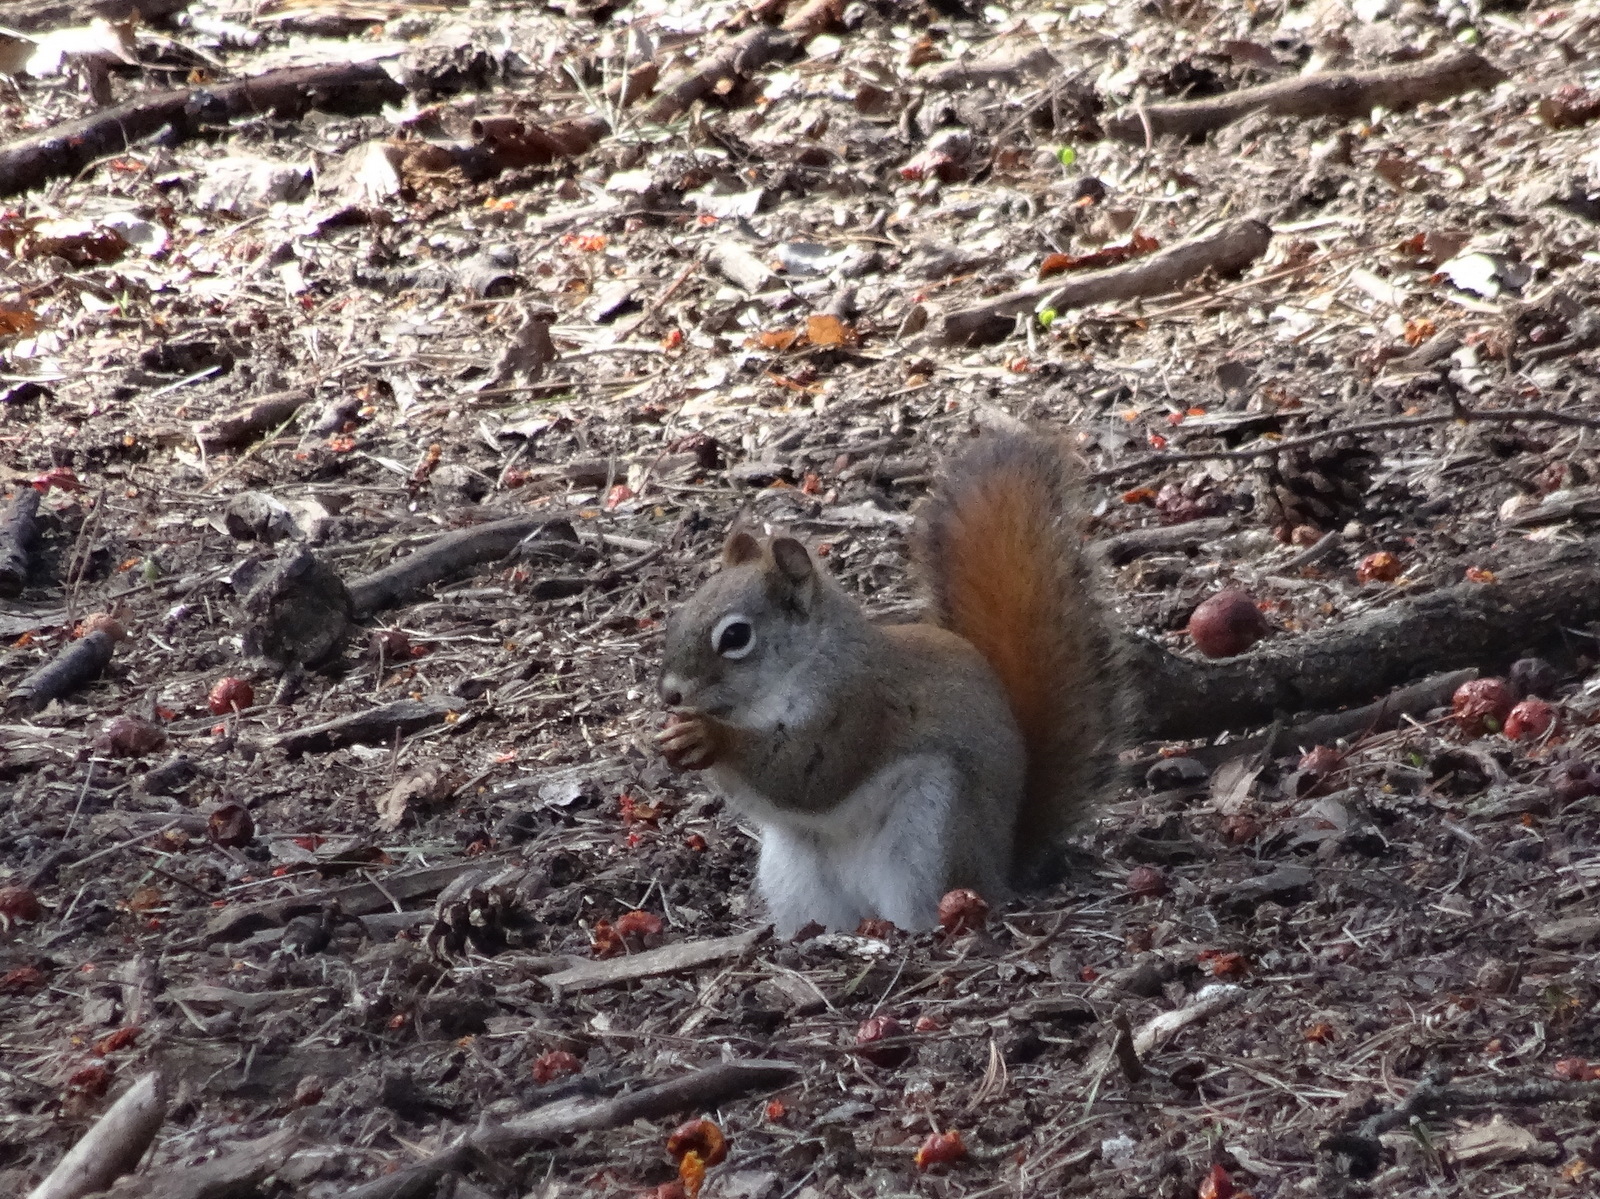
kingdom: Animalia
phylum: Chordata
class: Mammalia
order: Rodentia
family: Sciuridae
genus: Tamiasciurus
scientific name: Tamiasciurus hudsonicus
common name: Red squirrel
